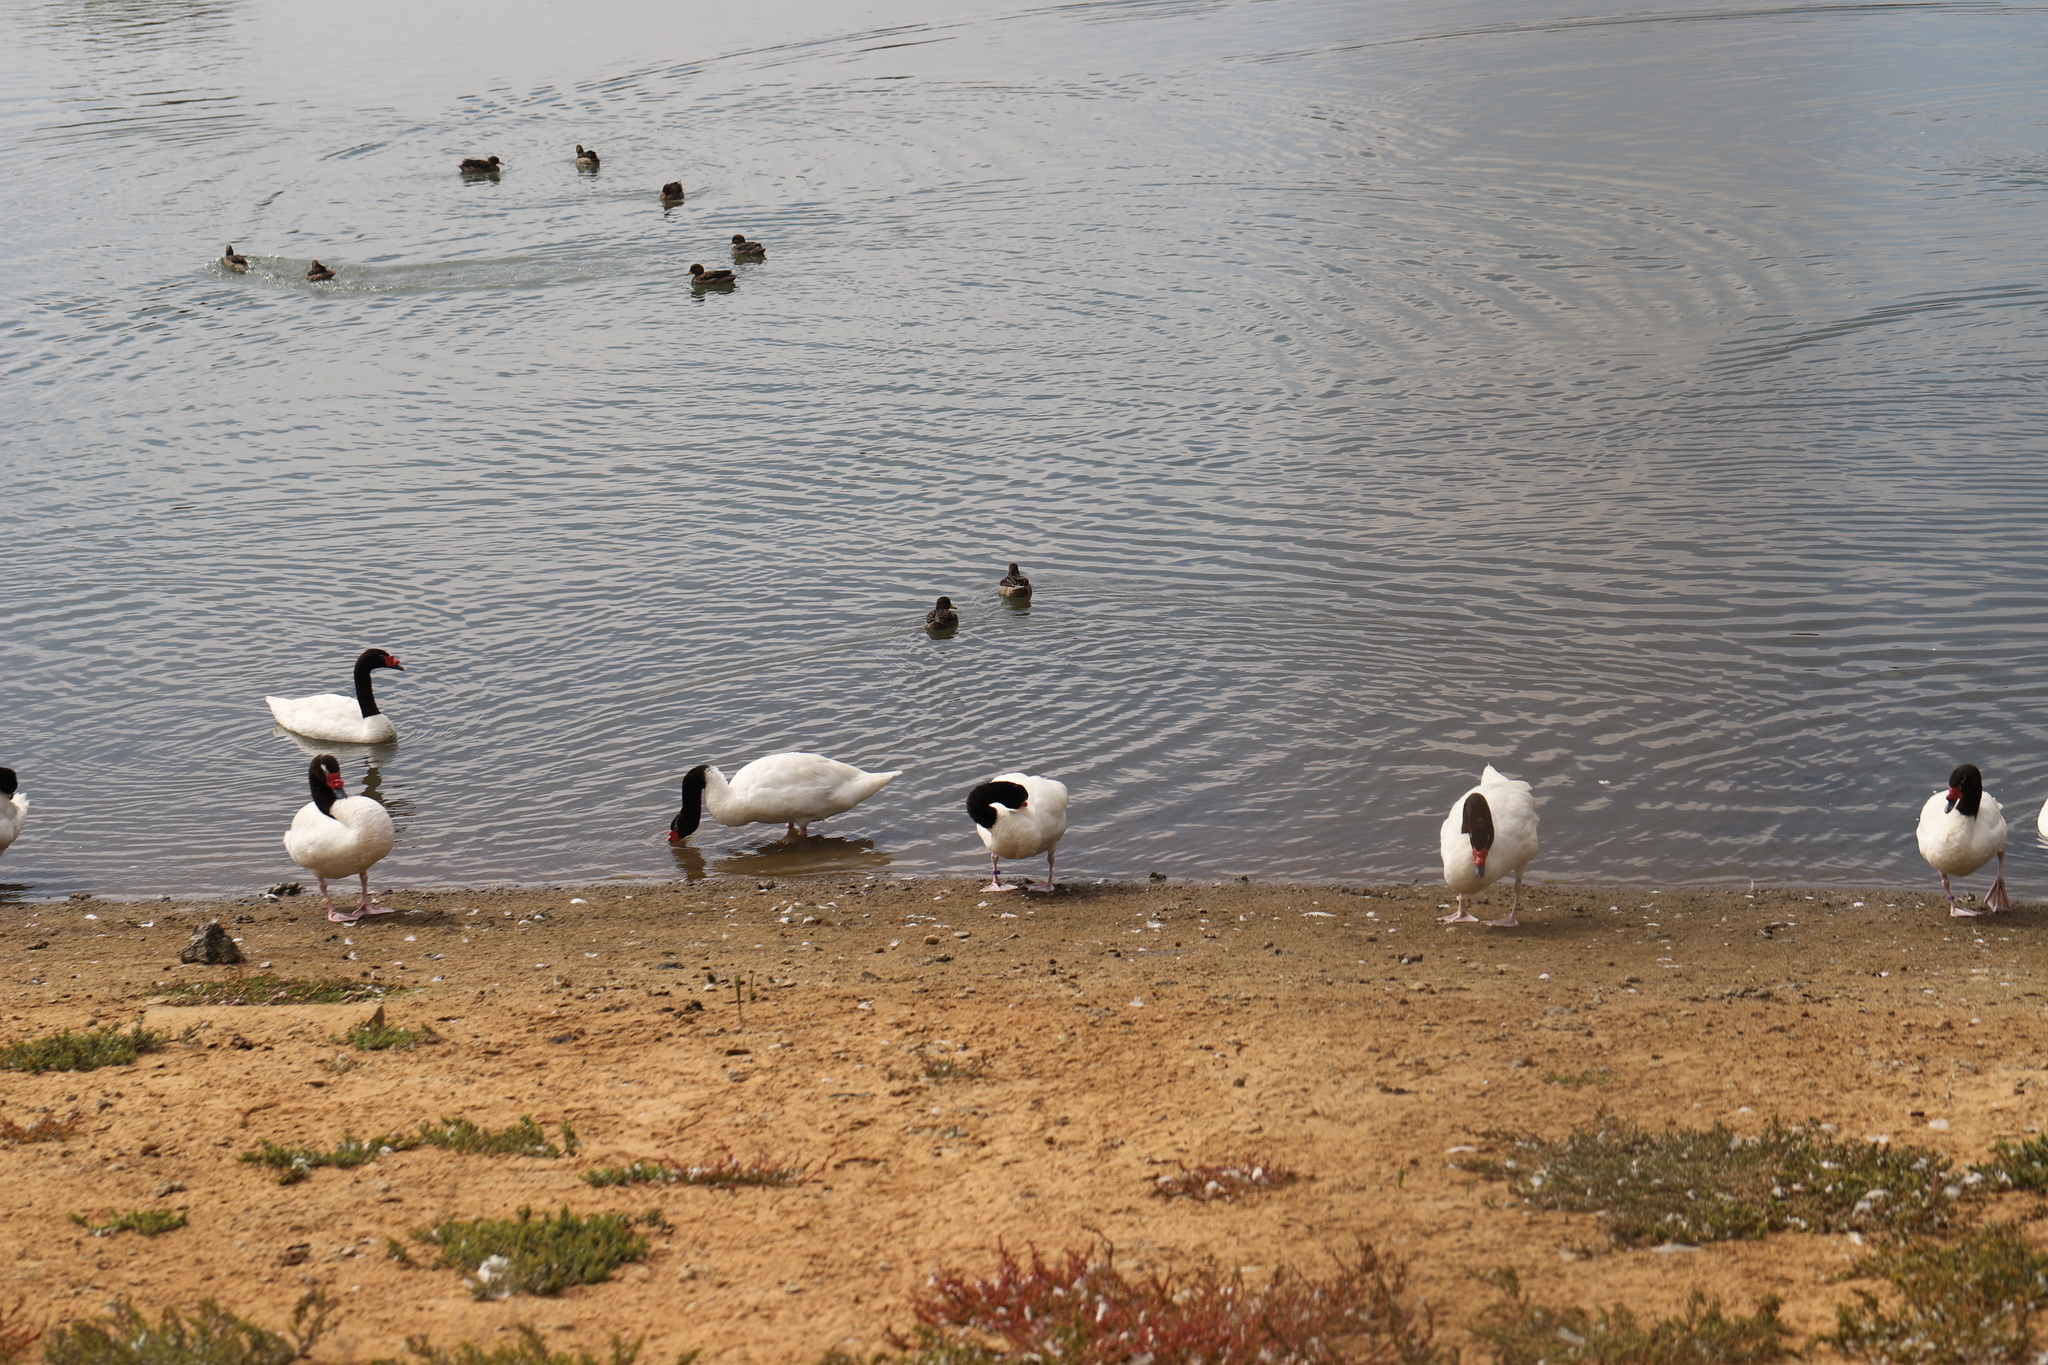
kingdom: Animalia
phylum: Chordata
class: Aves
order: Anseriformes
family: Anatidae
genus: Cygnus
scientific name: Cygnus melancoryphus
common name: Black-necked swan
